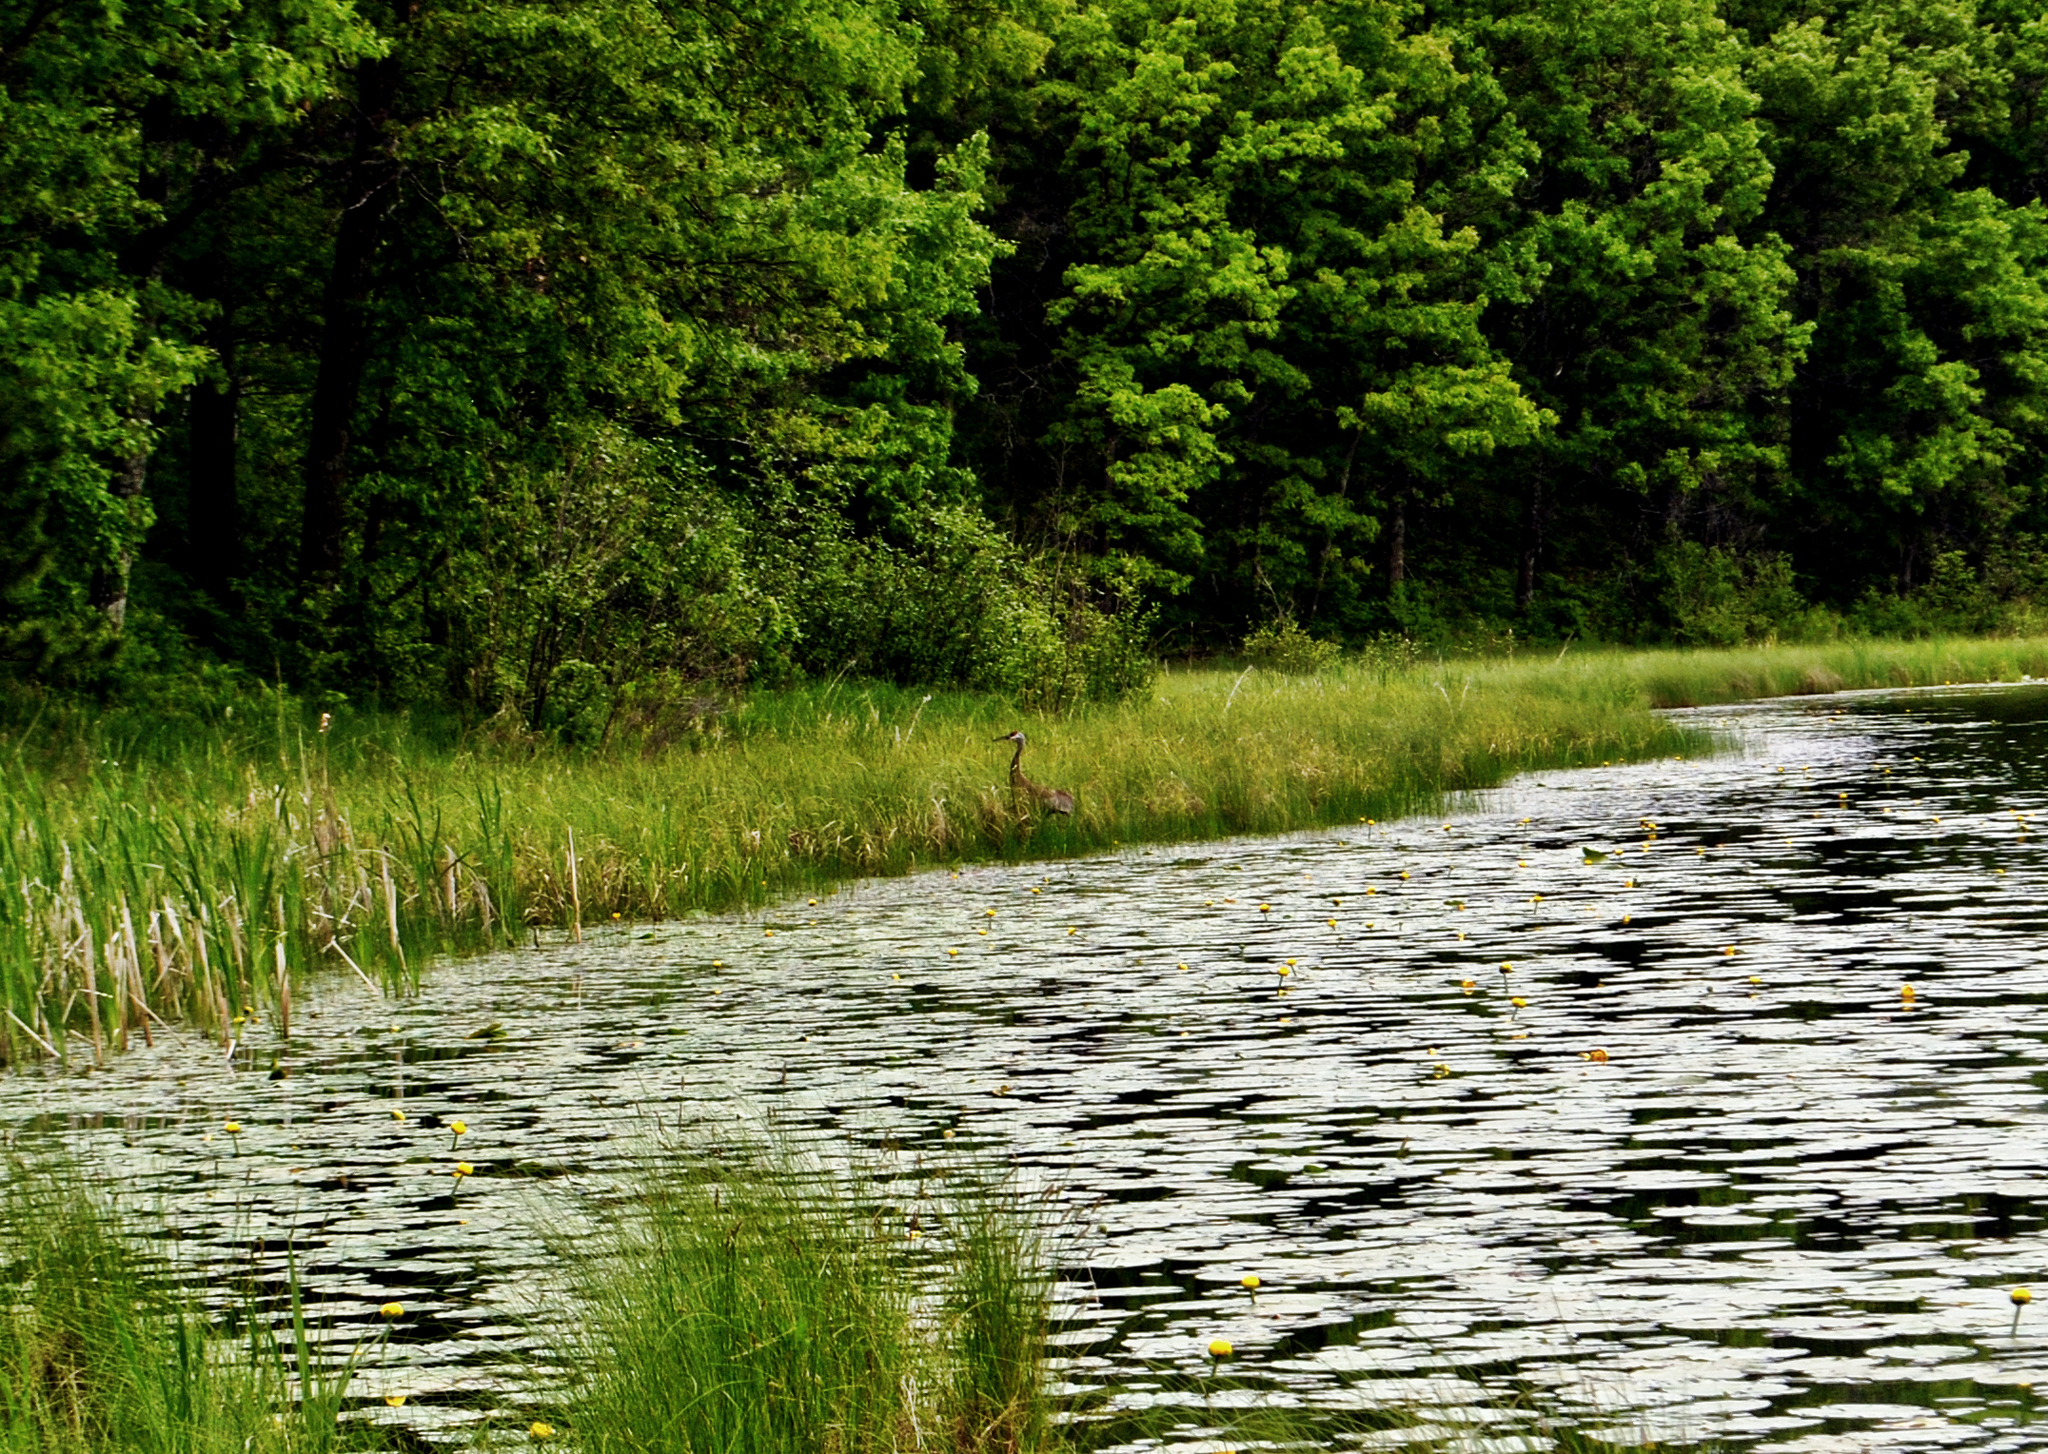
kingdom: Animalia
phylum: Chordata
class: Aves
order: Gruiformes
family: Gruidae
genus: Grus
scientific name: Grus canadensis
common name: Sandhill crane
